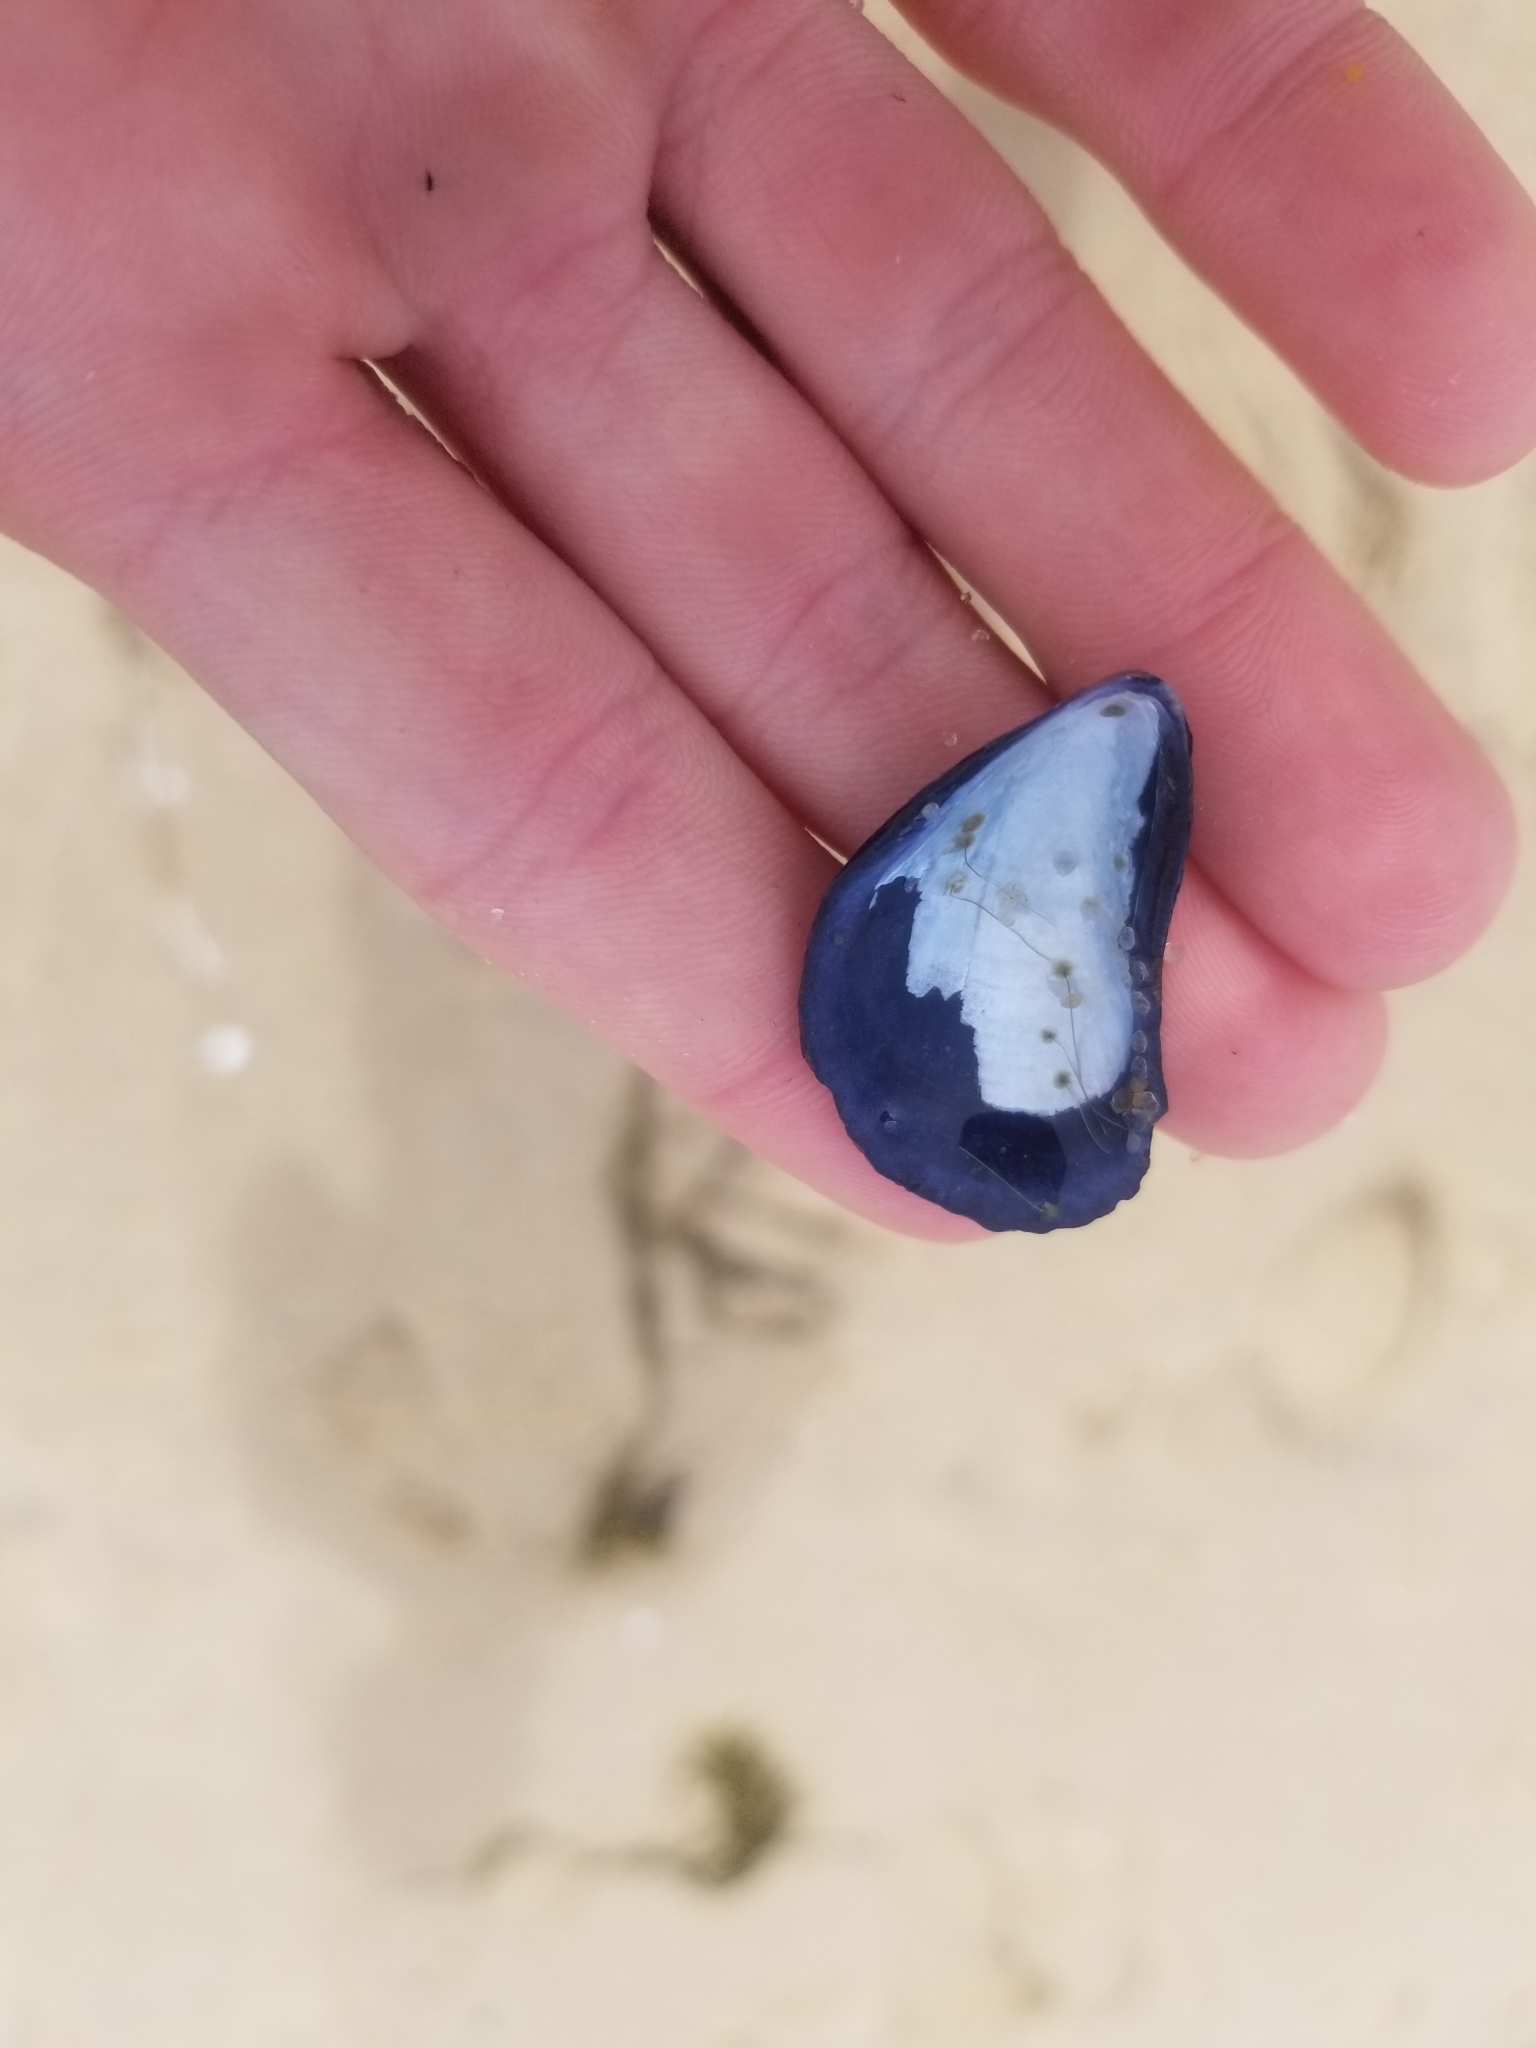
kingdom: Animalia
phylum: Mollusca
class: Bivalvia
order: Mytilida
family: Mytilidae
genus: Mytilus
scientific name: Mytilus edulis
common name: Blue mussel
